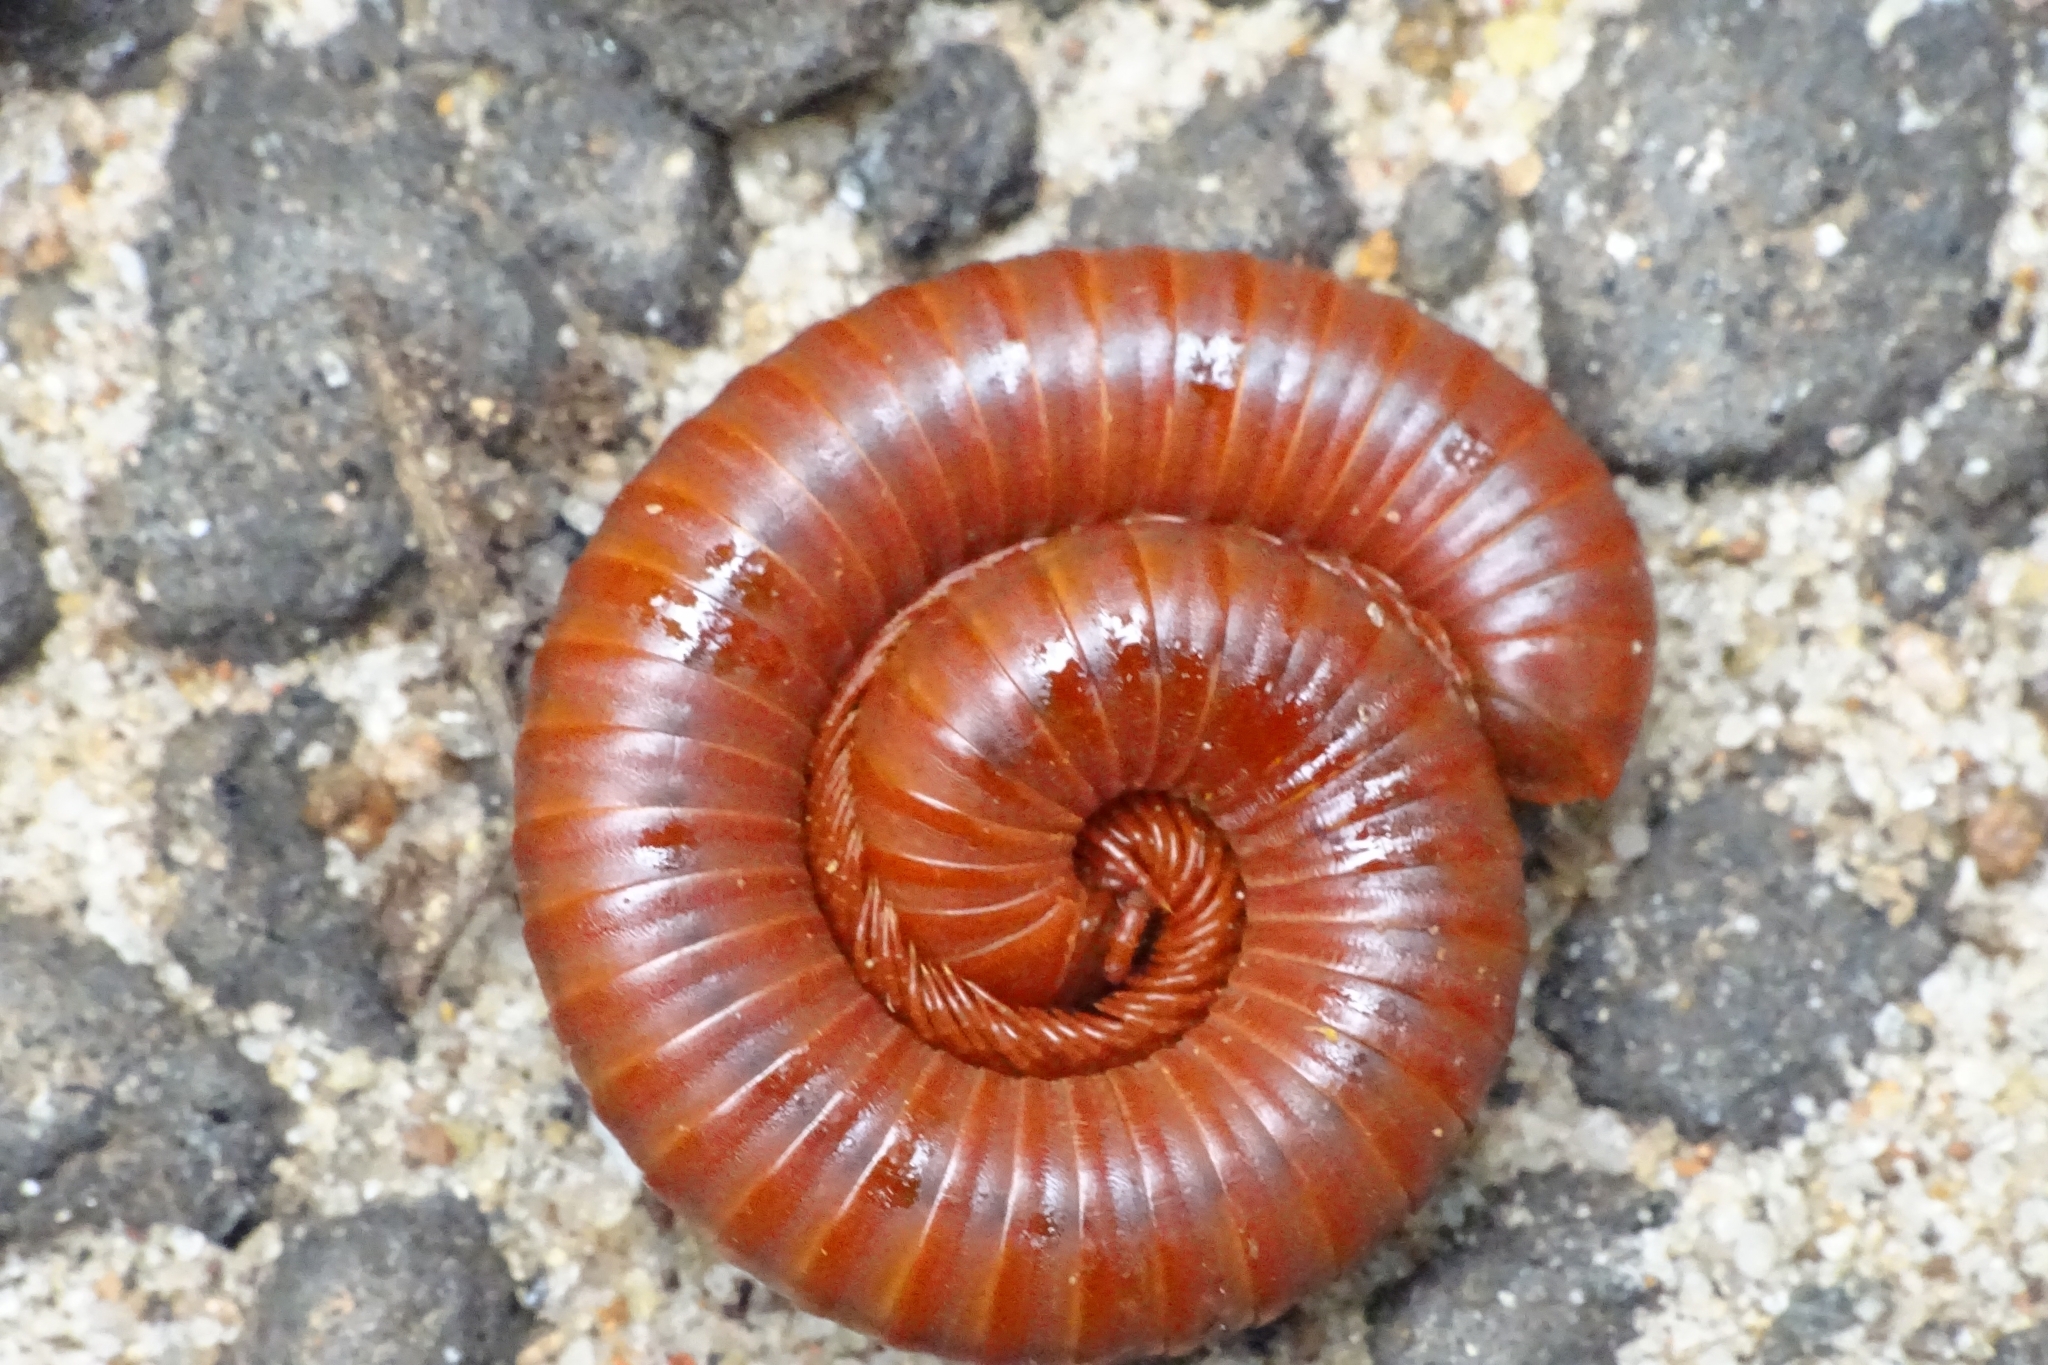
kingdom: Animalia
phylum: Arthropoda
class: Diplopoda
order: Spirobolida
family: Pachybolidae
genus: Trigoniulus
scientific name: Trigoniulus corallinus
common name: Millipede
